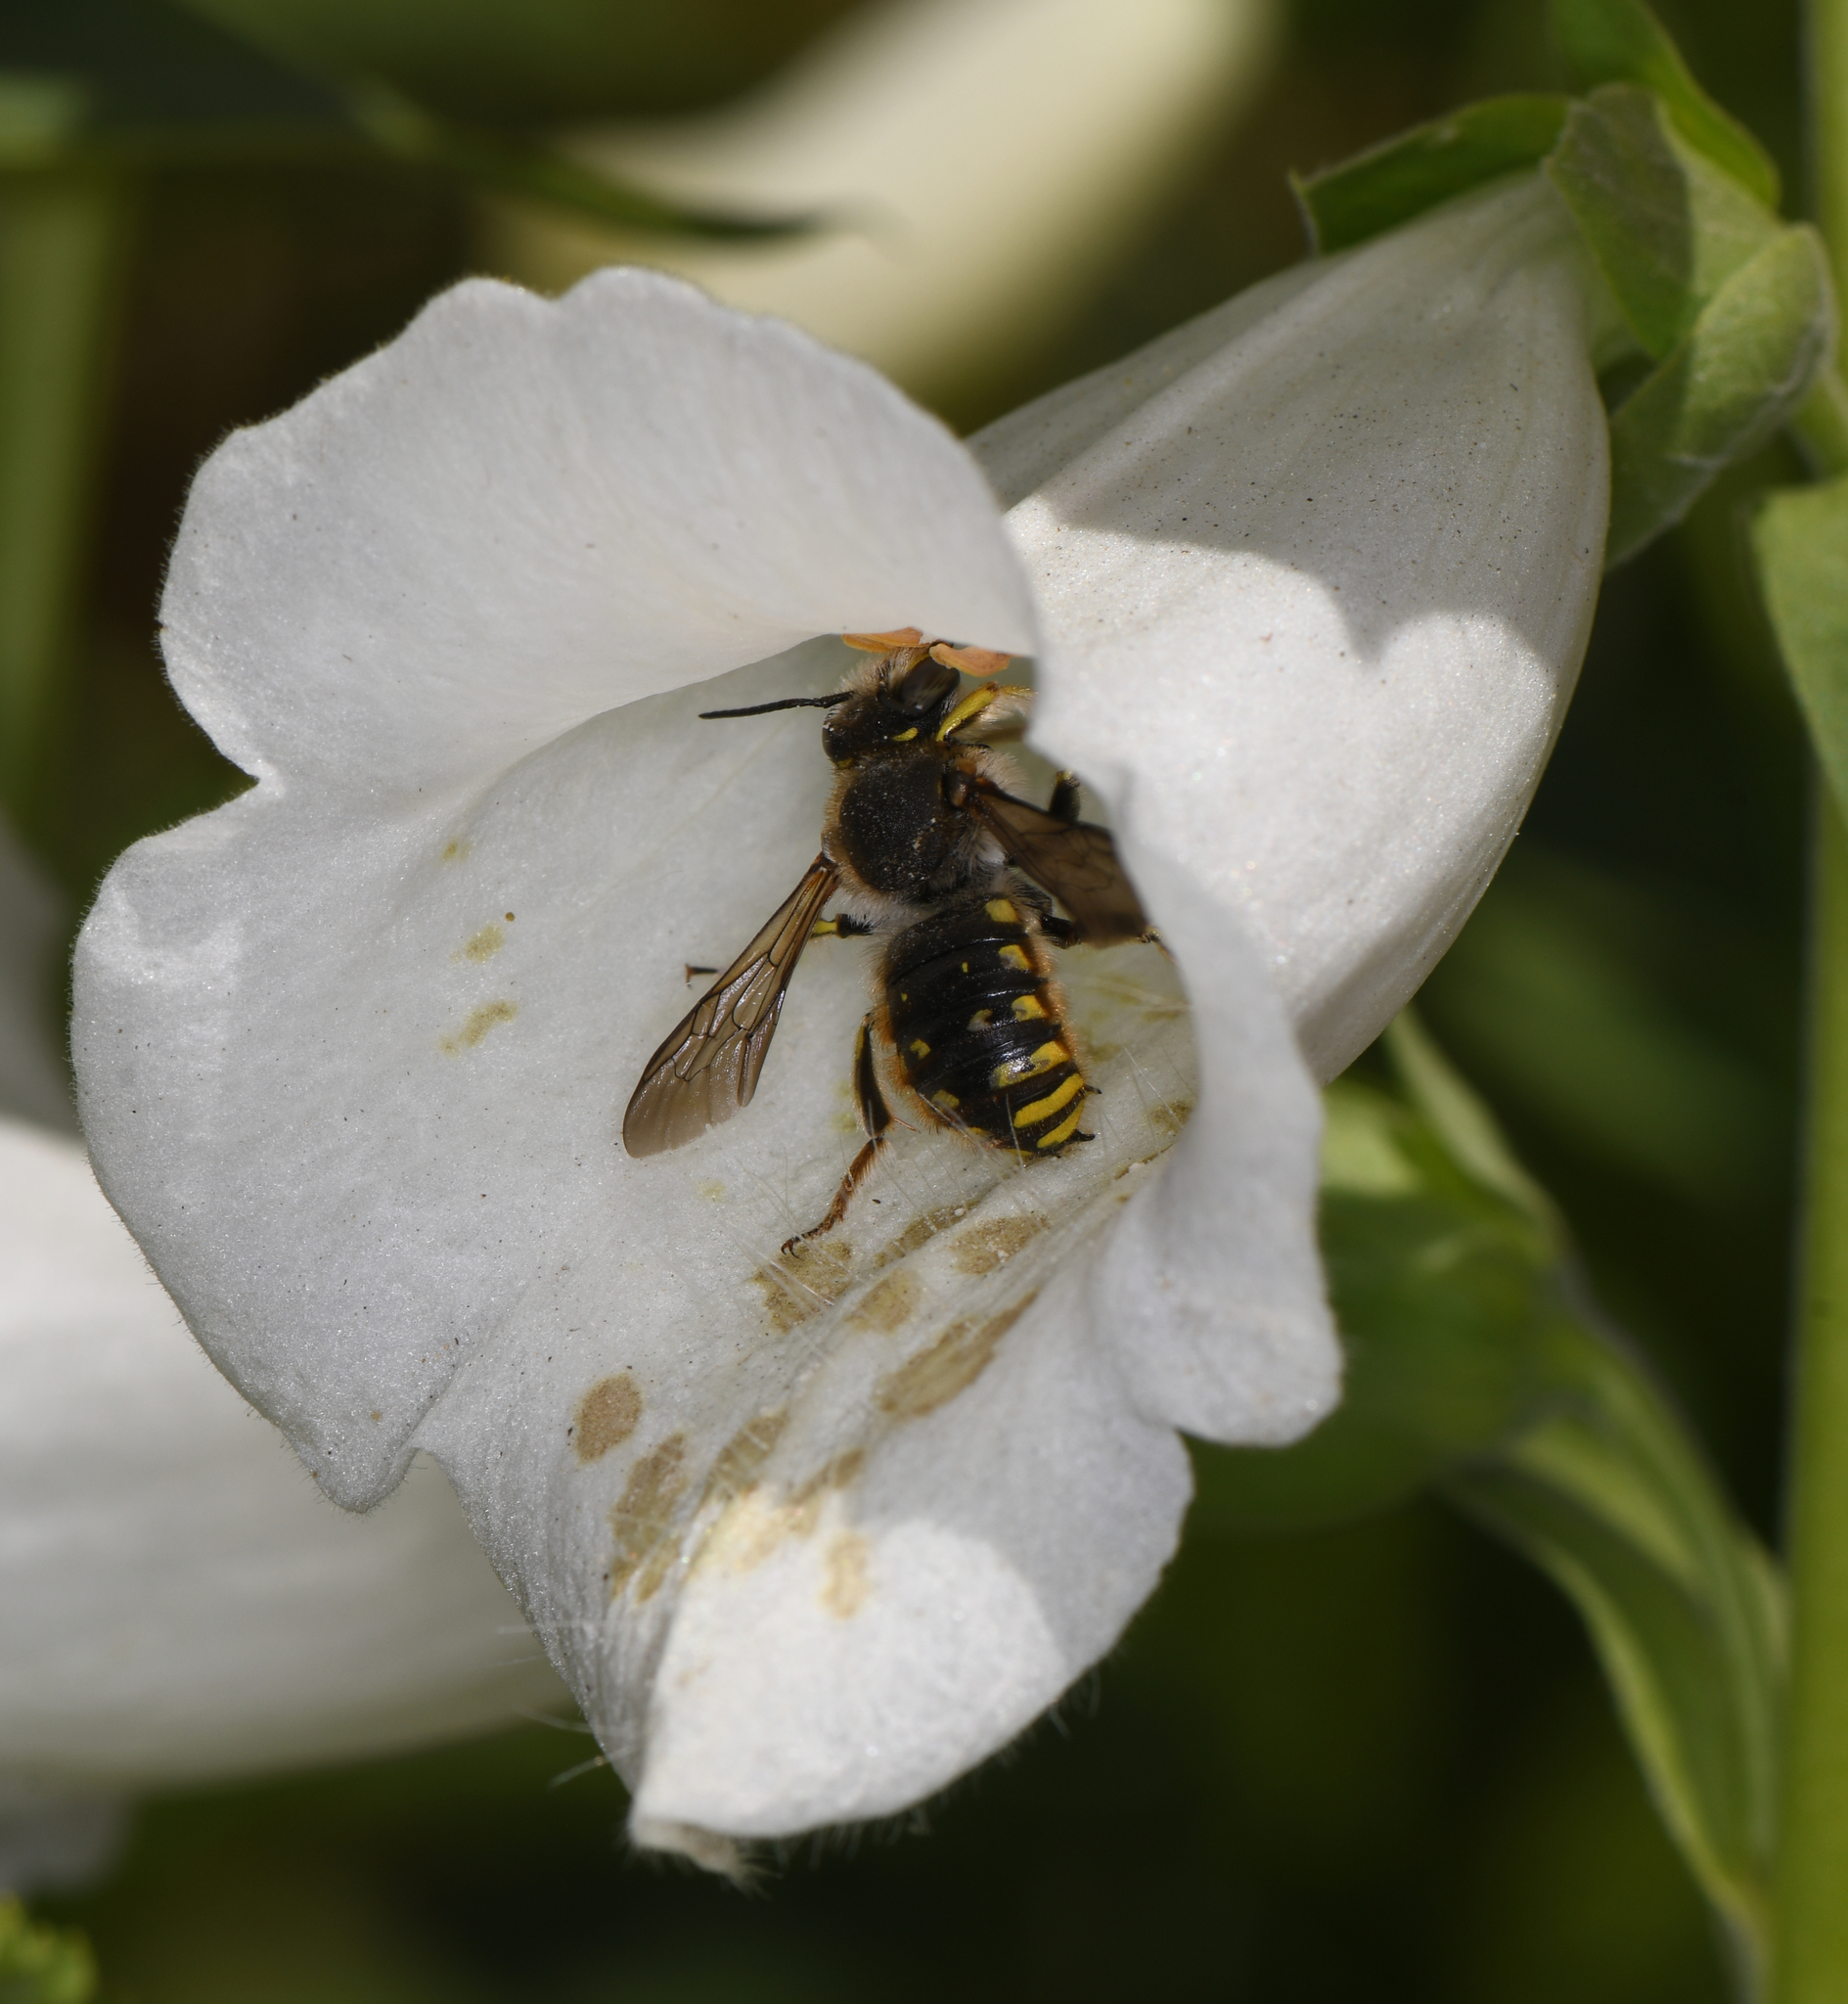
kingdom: Animalia
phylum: Arthropoda
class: Insecta
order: Hymenoptera
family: Megachilidae
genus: Anthidium
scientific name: Anthidium manicatum
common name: Wool carder bee
